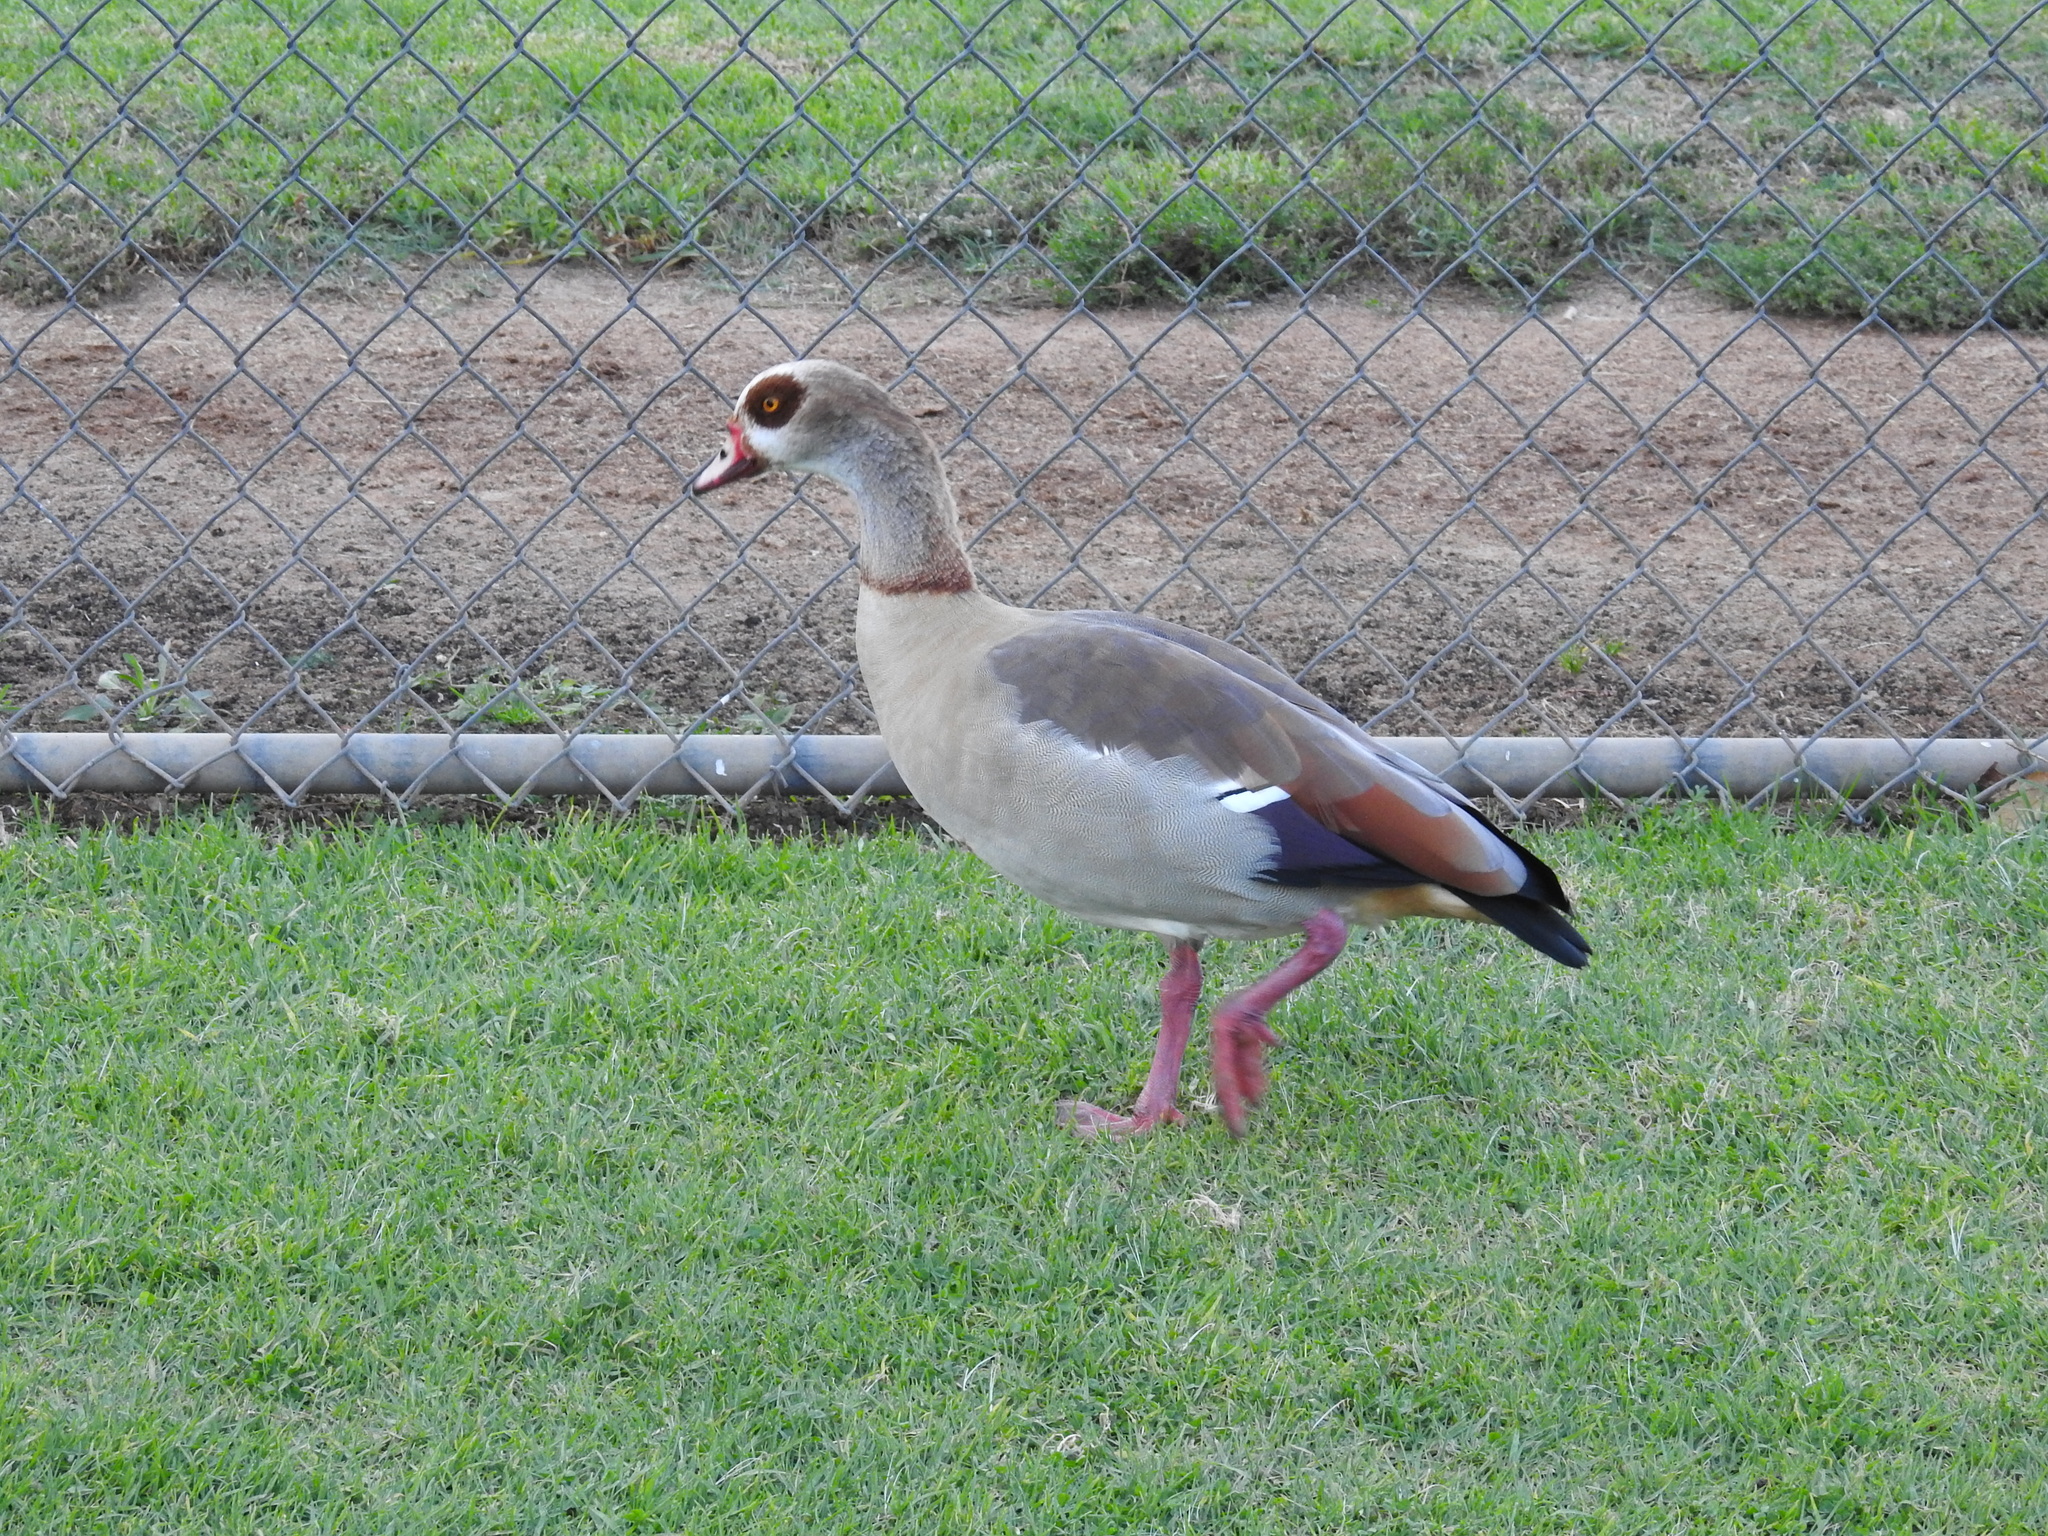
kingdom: Animalia
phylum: Chordata
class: Aves
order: Anseriformes
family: Anatidae
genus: Alopochen
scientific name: Alopochen aegyptiaca
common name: Egyptian goose
